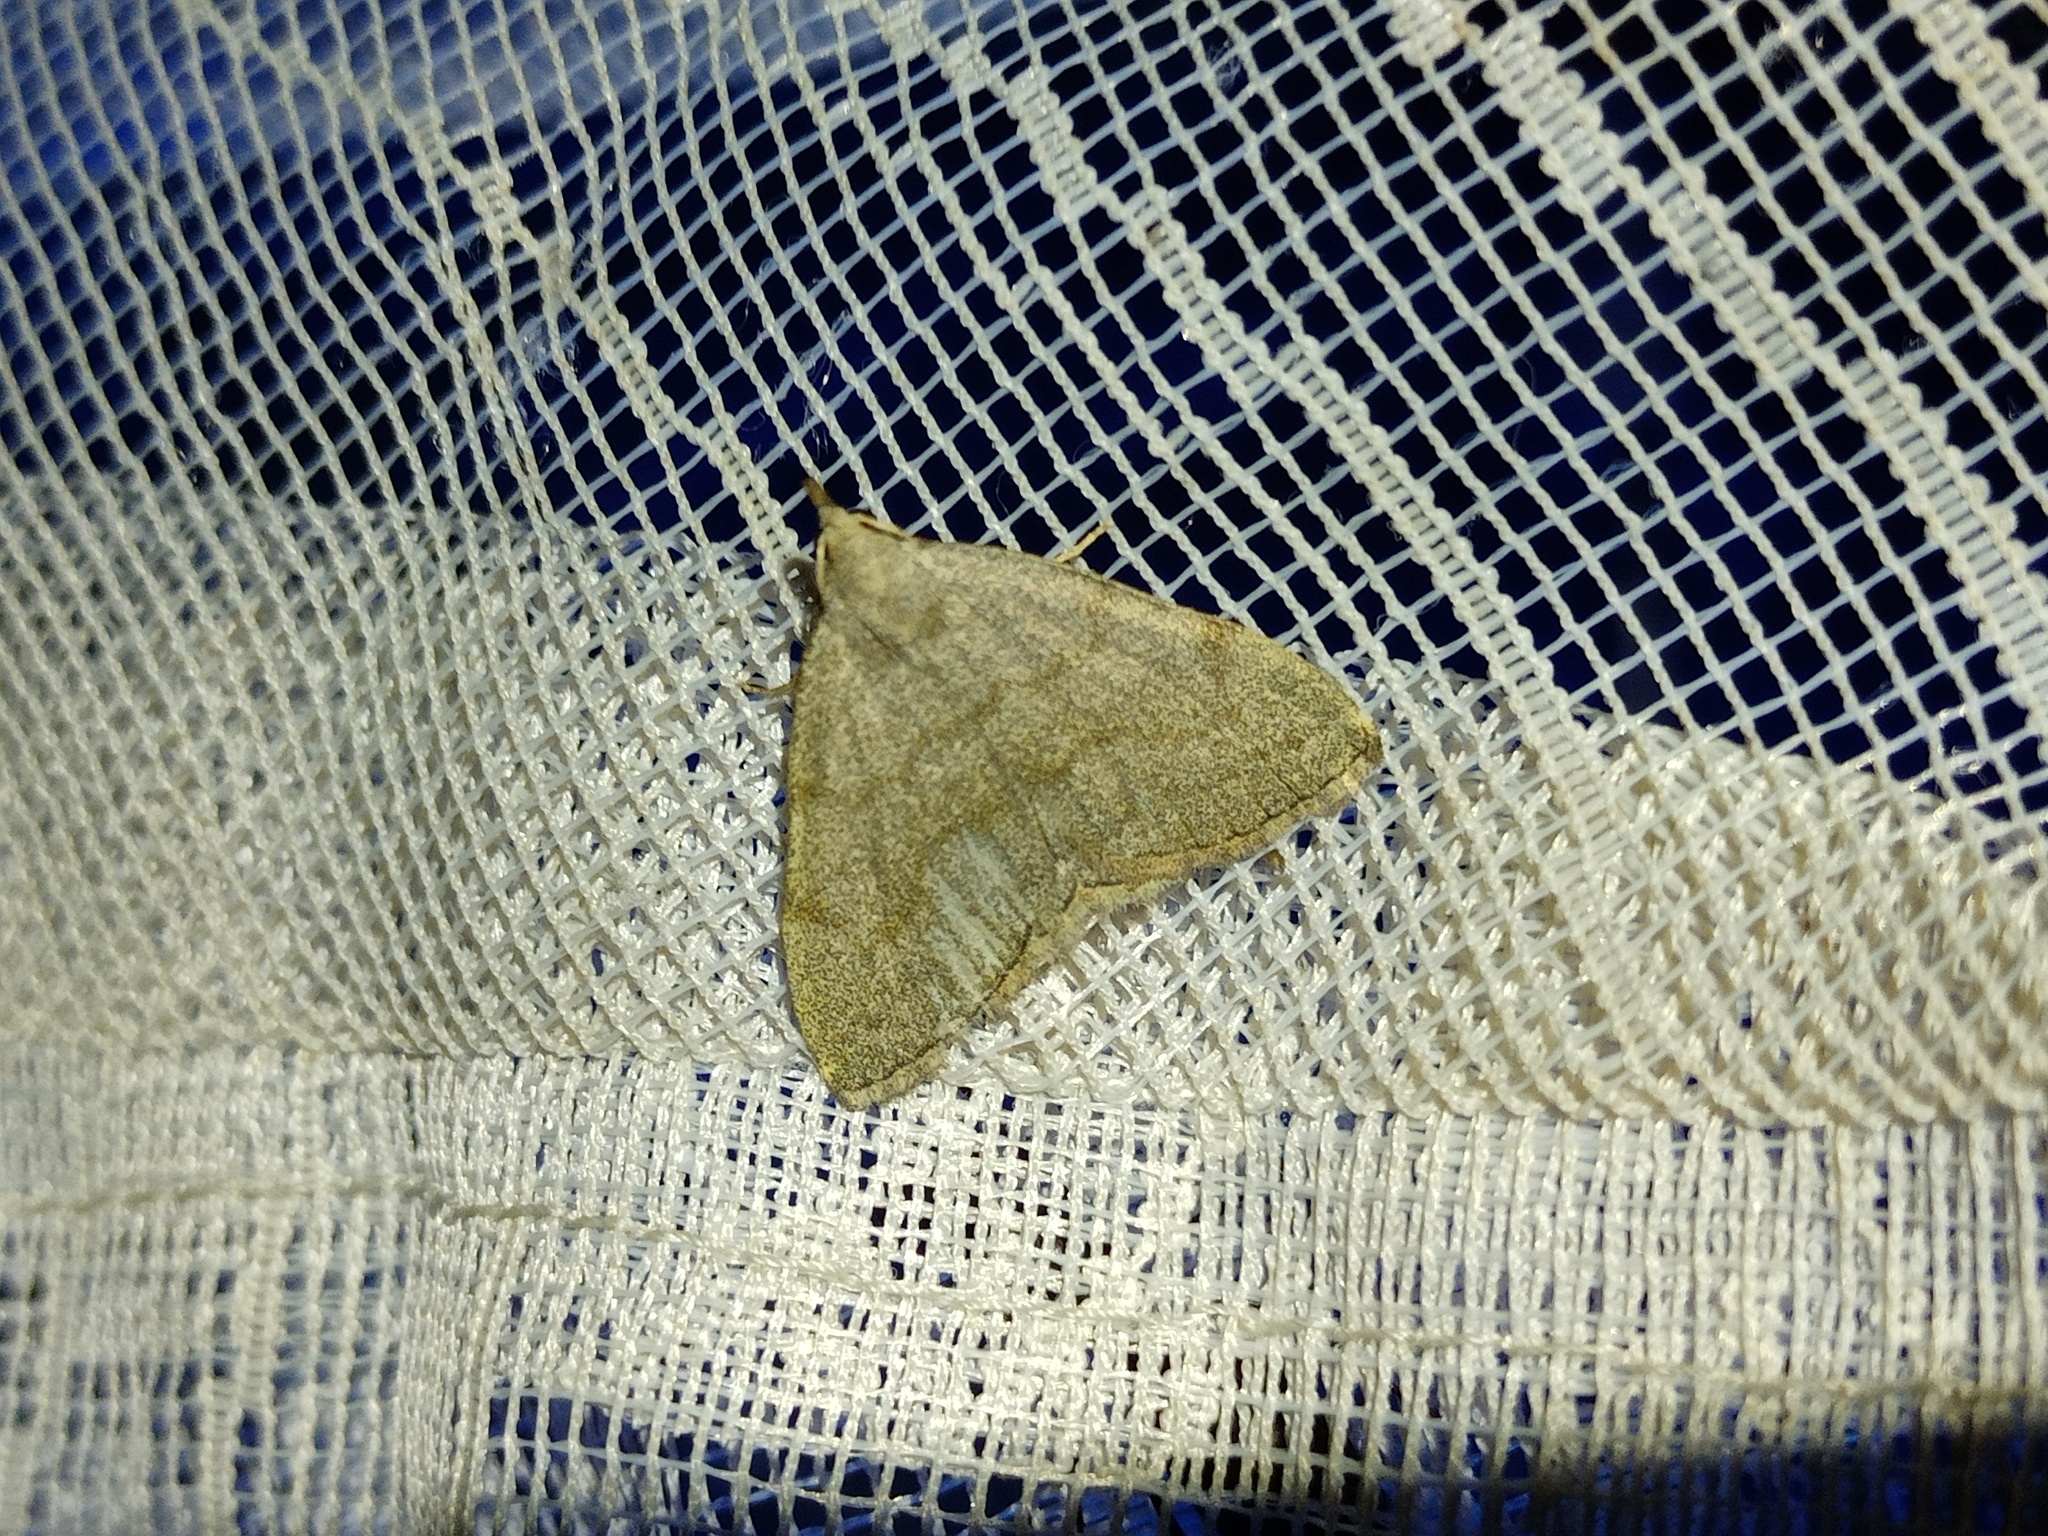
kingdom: Animalia
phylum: Arthropoda
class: Insecta
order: Lepidoptera
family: Erebidae
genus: Pechipogo
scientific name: Pechipogo strigilata
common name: Common fan-foot
